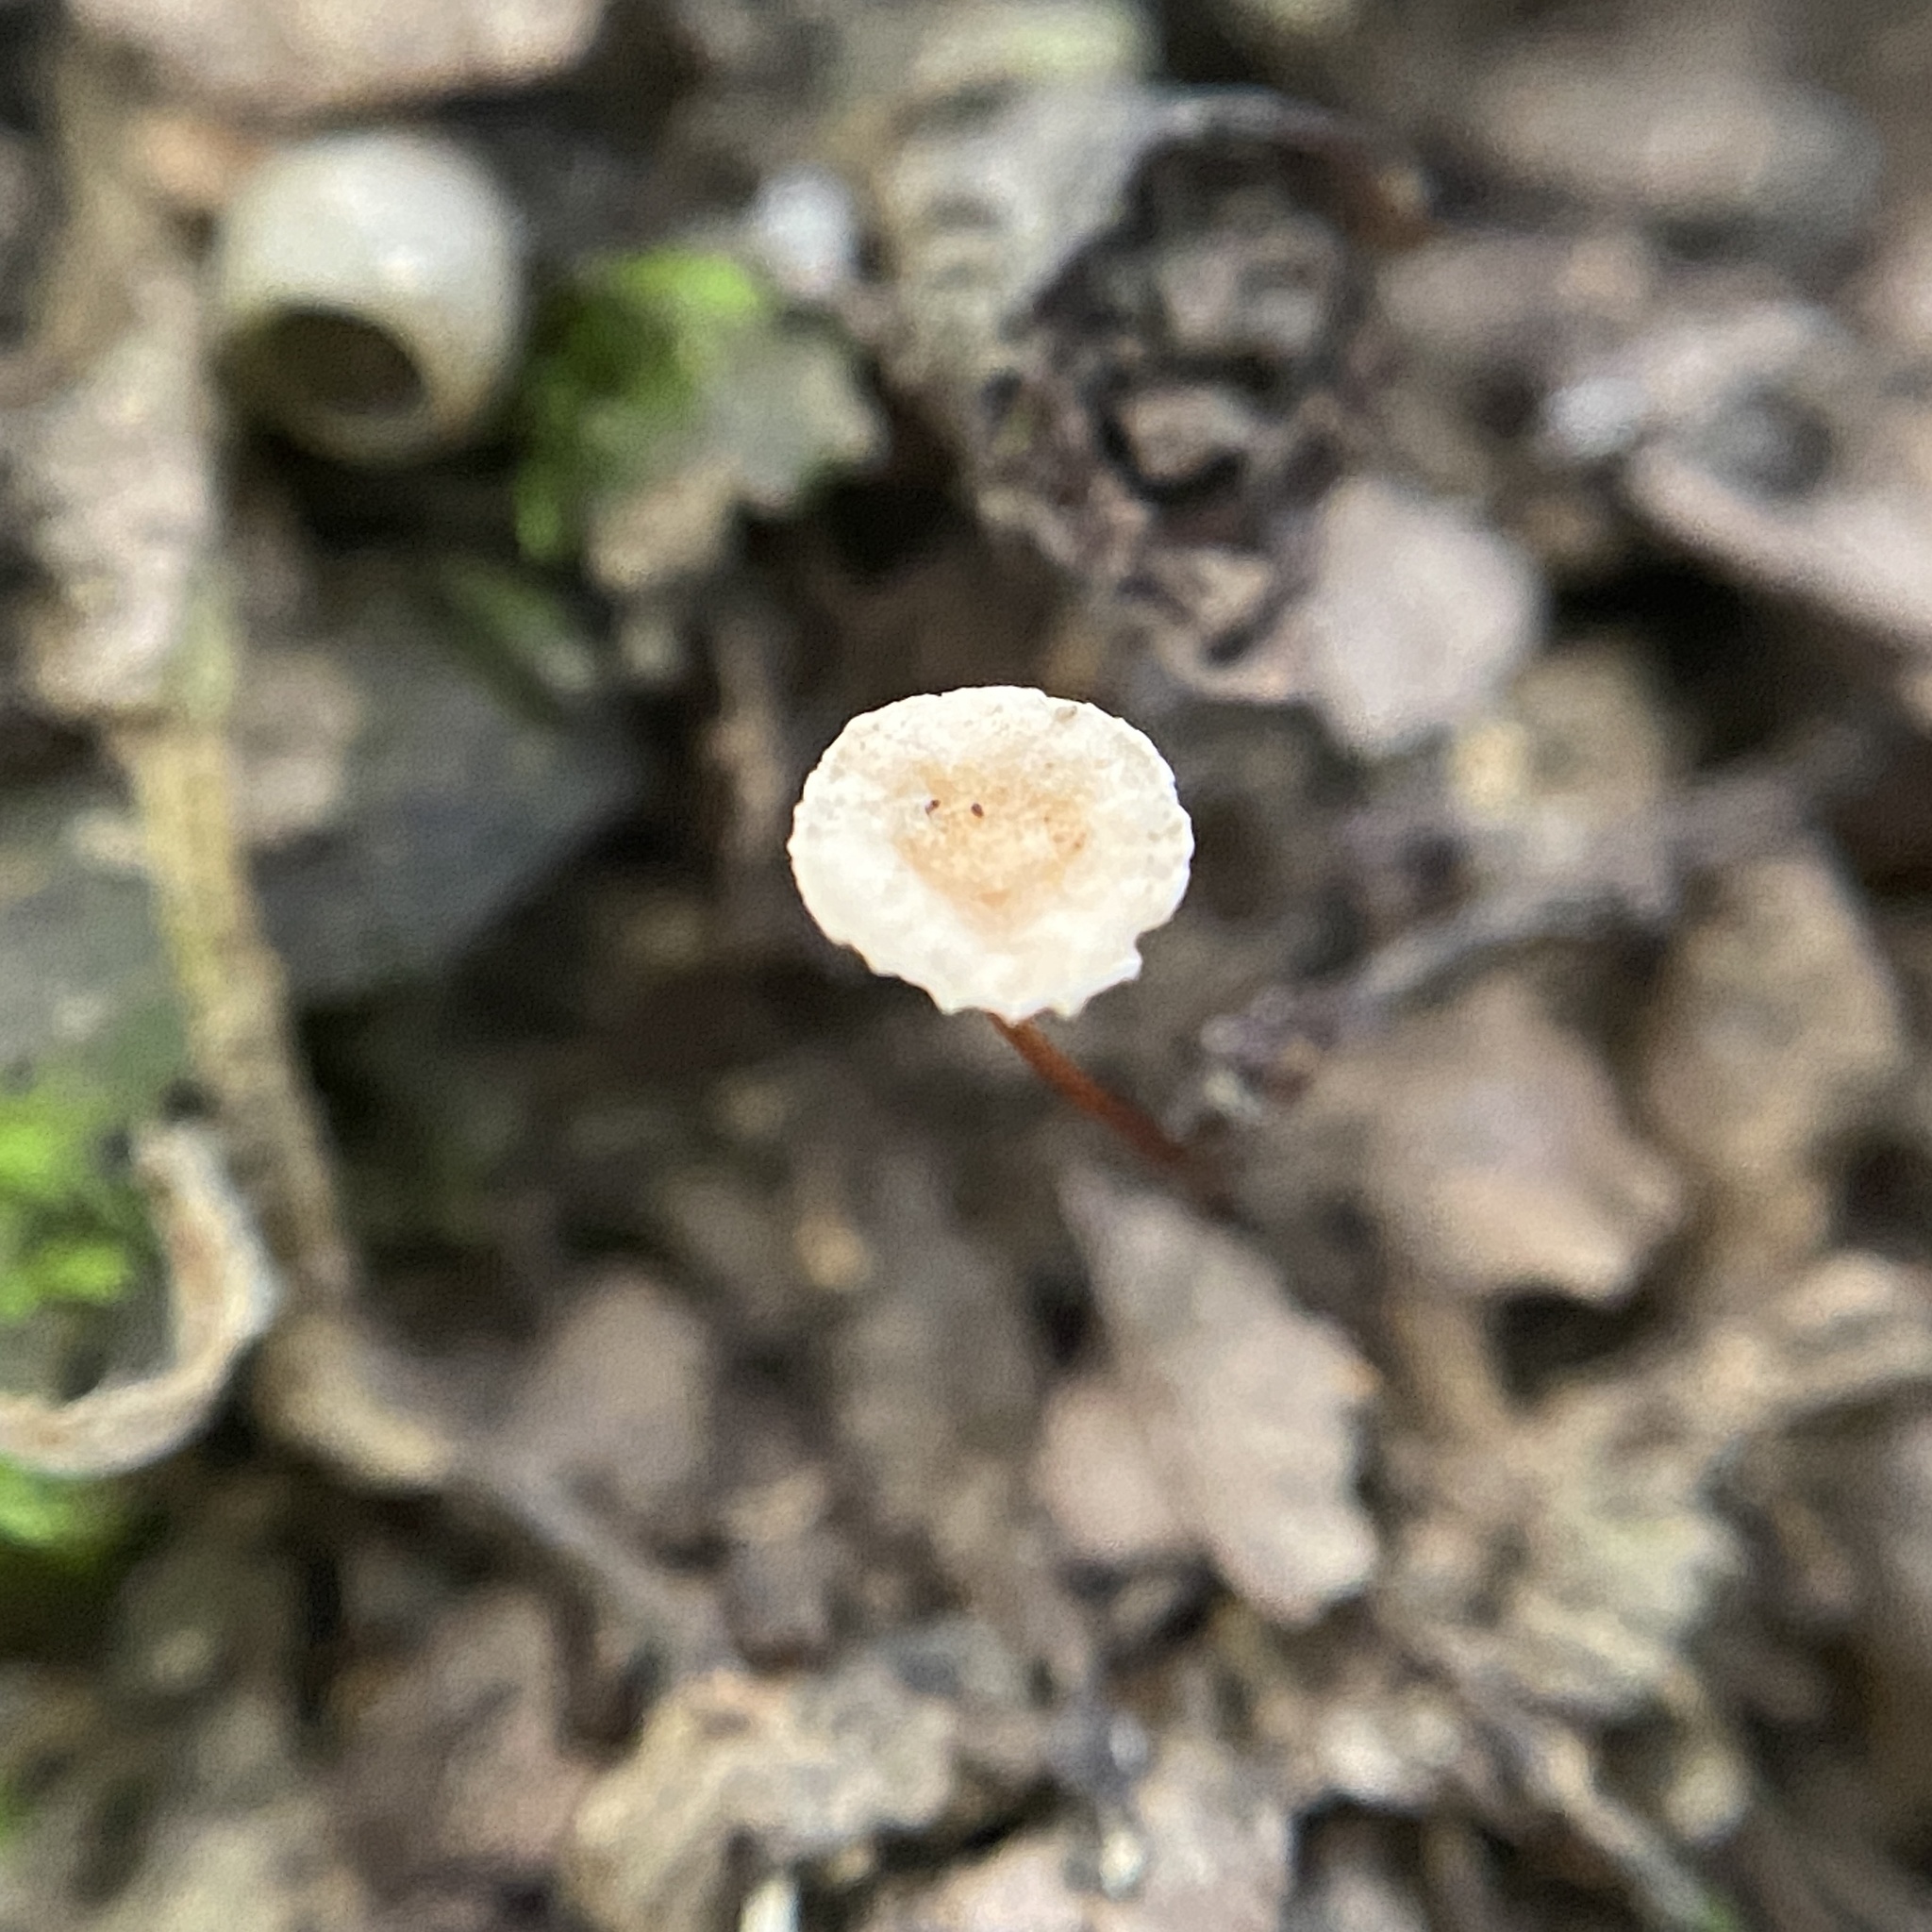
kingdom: Fungi
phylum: Basidiomycota
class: Agaricomycetes
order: Agaricales
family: Omphalotaceae
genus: Collybiopsis
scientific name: Collybiopsis quercophila
